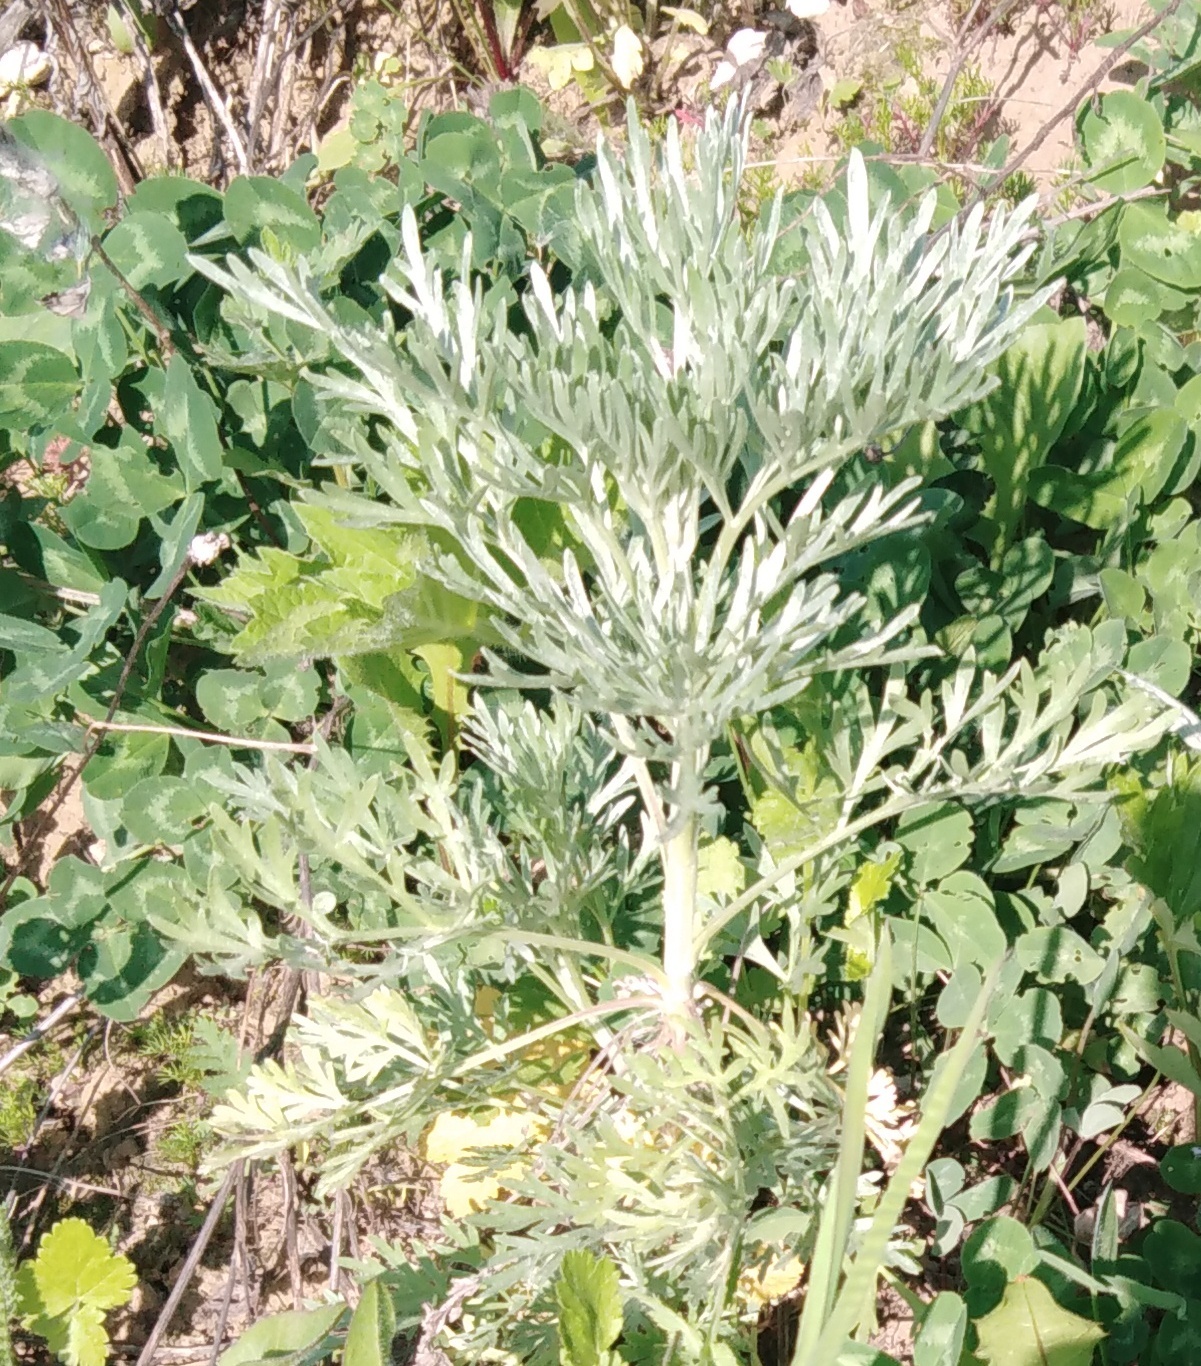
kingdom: Plantae
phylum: Tracheophyta
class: Magnoliopsida
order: Asterales
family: Asteraceae
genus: Artemisia
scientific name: Artemisia absinthium
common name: Wormwood
